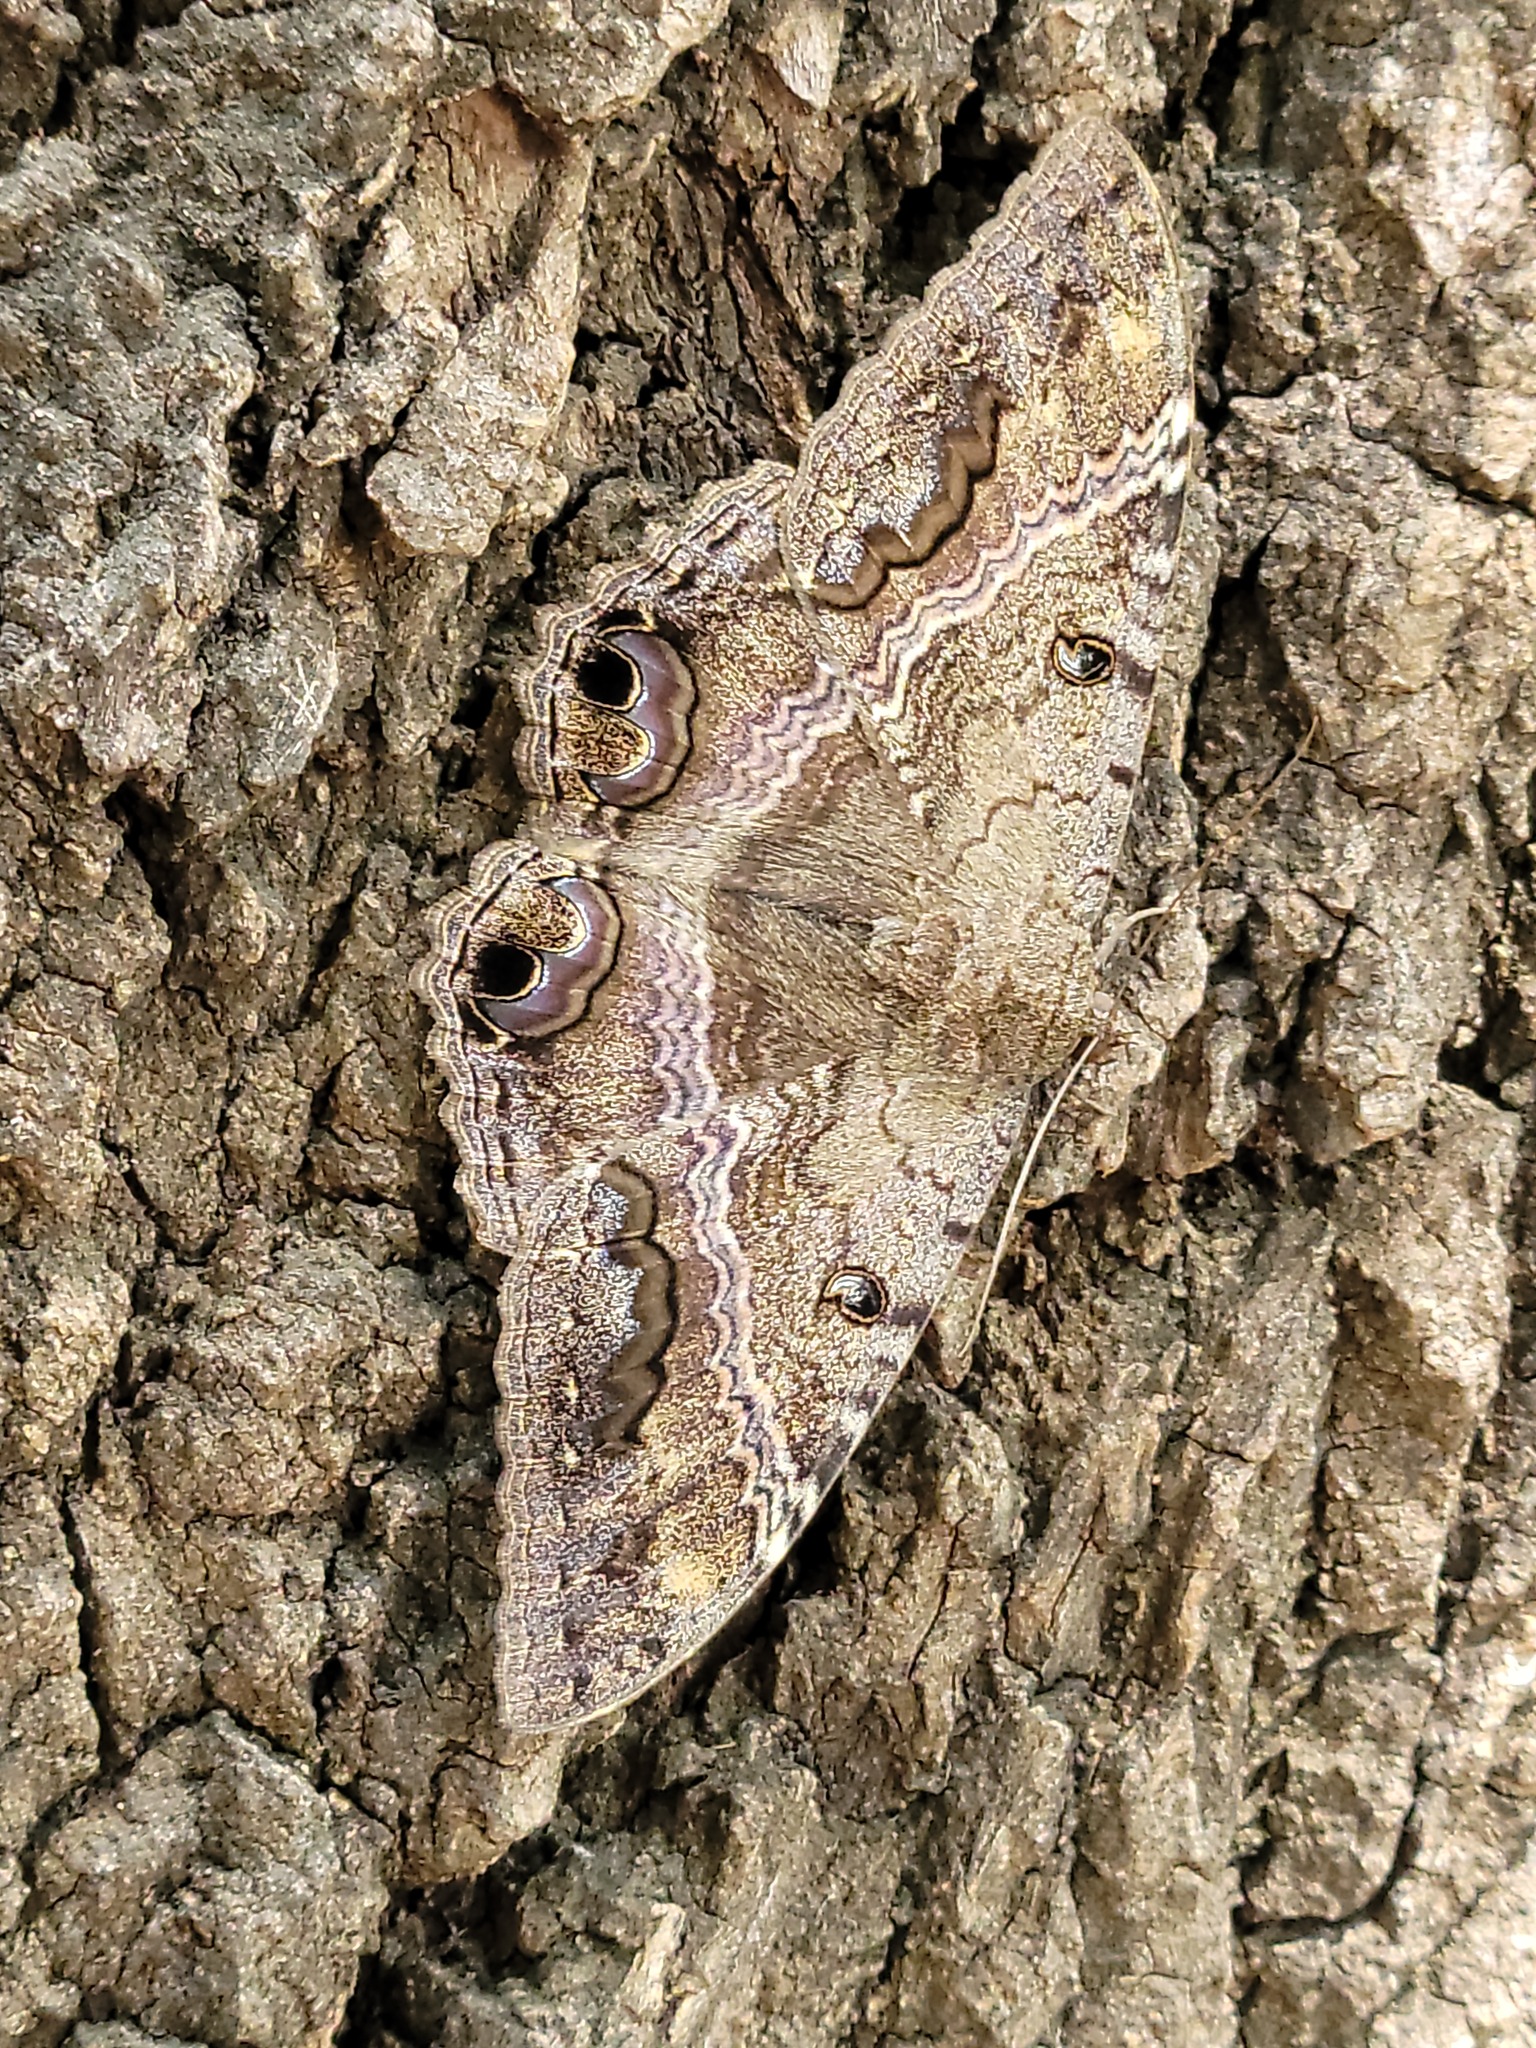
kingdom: Animalia
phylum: Arthropoda
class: Insecta
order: Lepidoptera
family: Erebidae
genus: Ascalapha
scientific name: Ascalapha odorata
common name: Black witch
